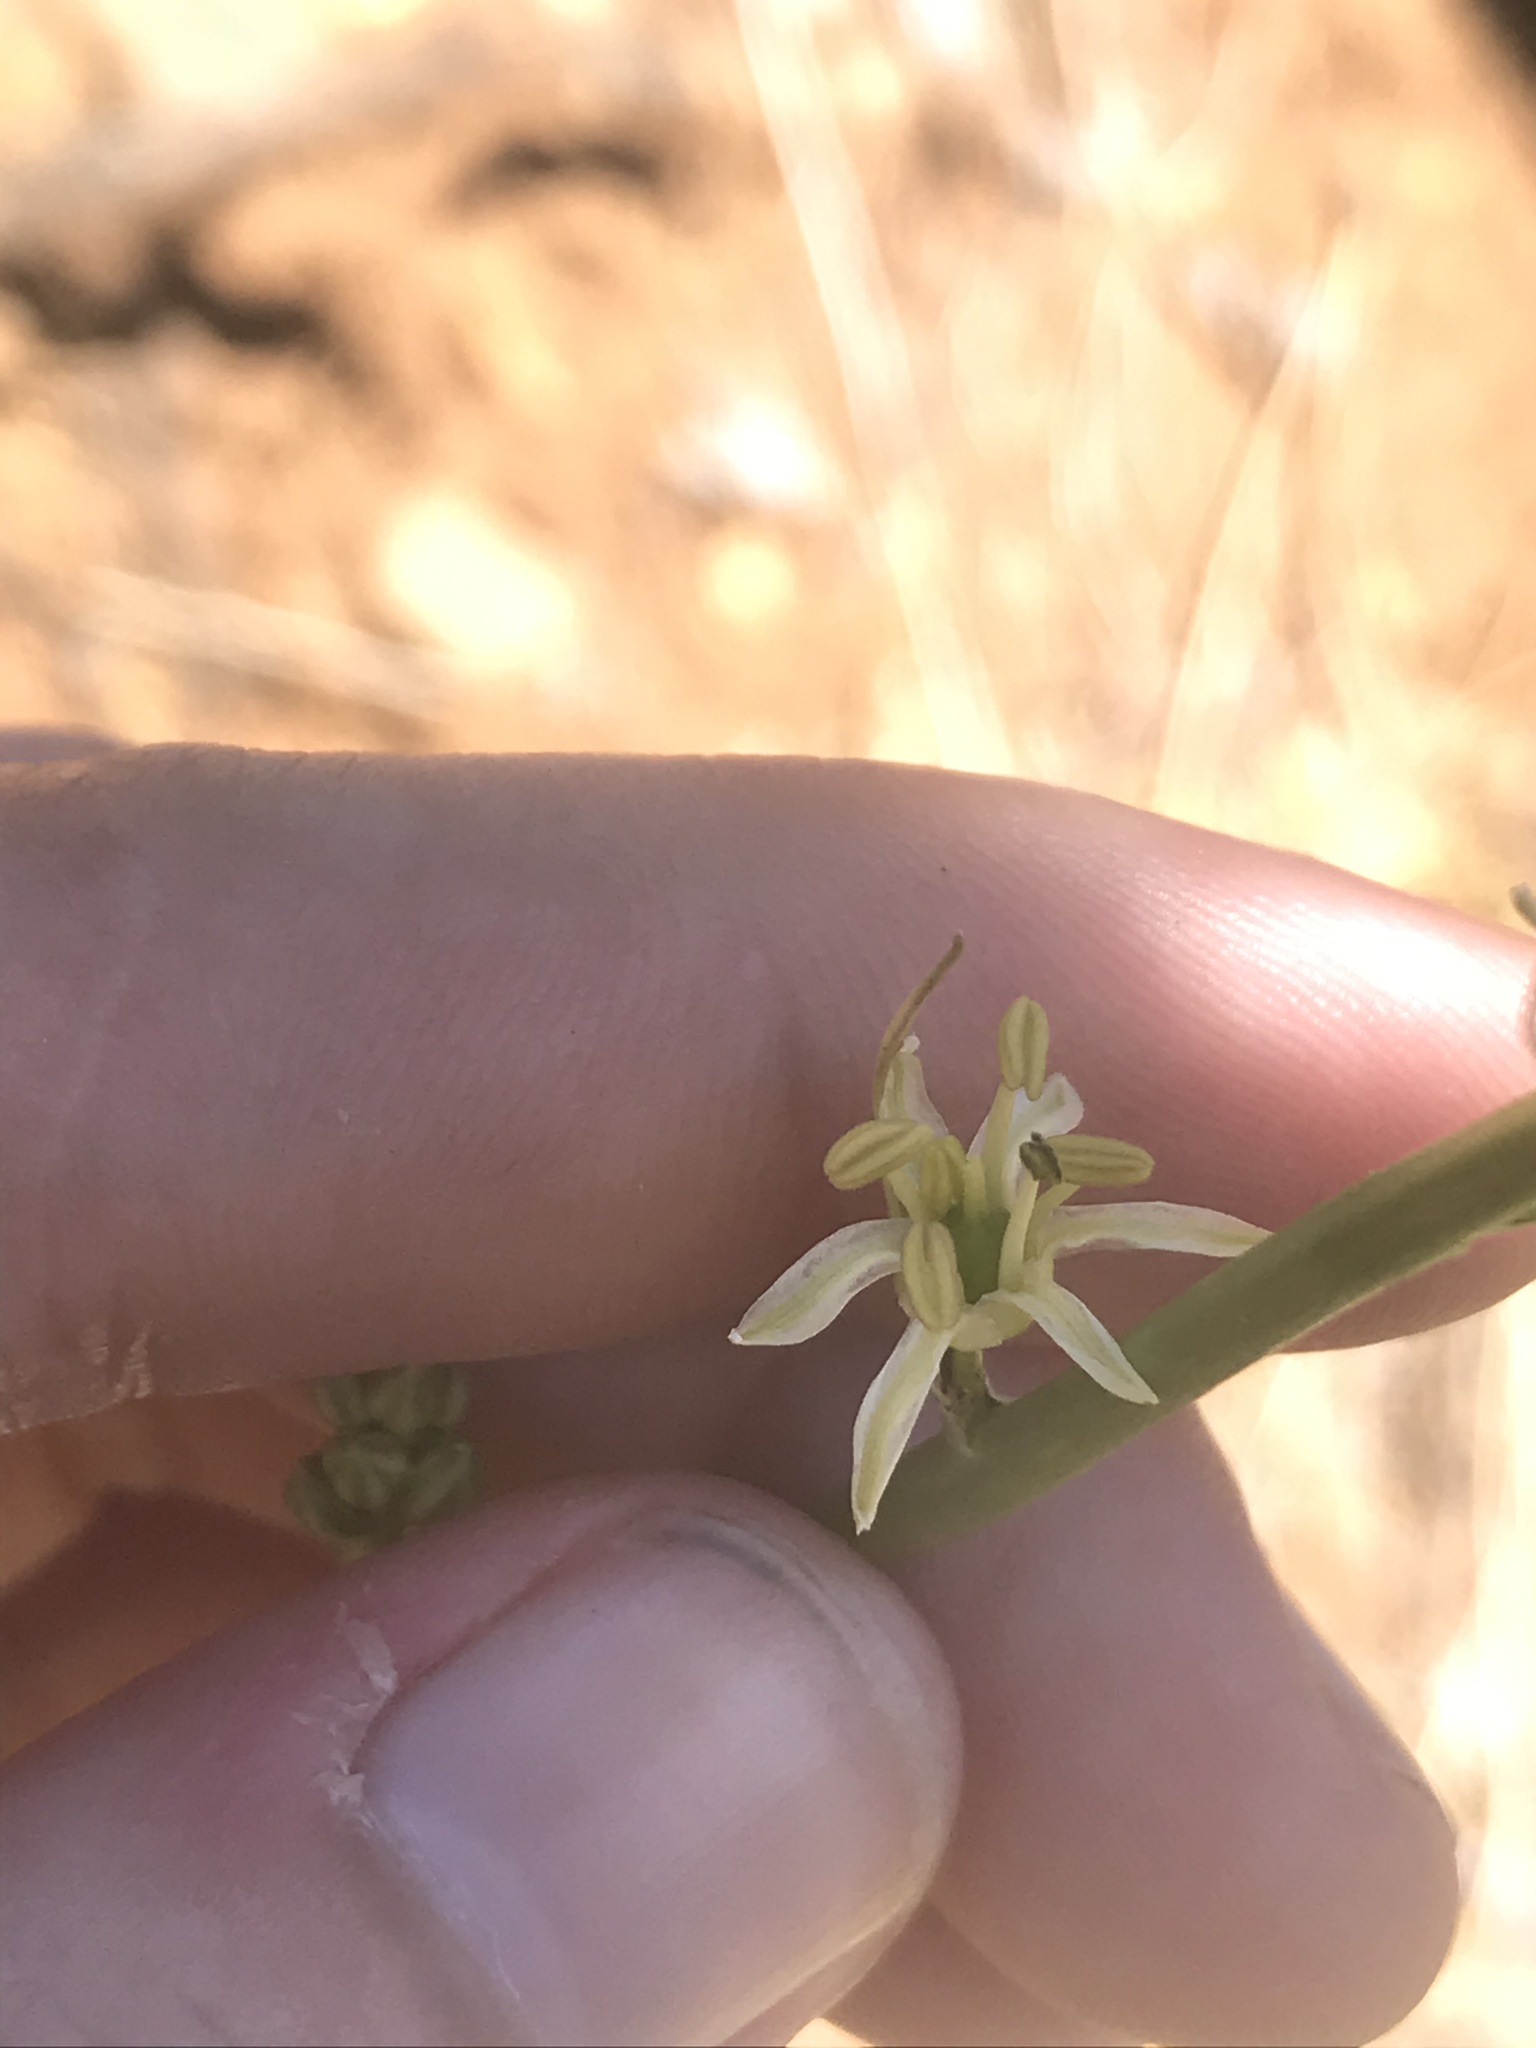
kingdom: Plantae
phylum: Tracheophyta
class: Liliopsida
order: Asparagales
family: Asparagaceae
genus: Hastingsia
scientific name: Hastingsia serpentinicola
